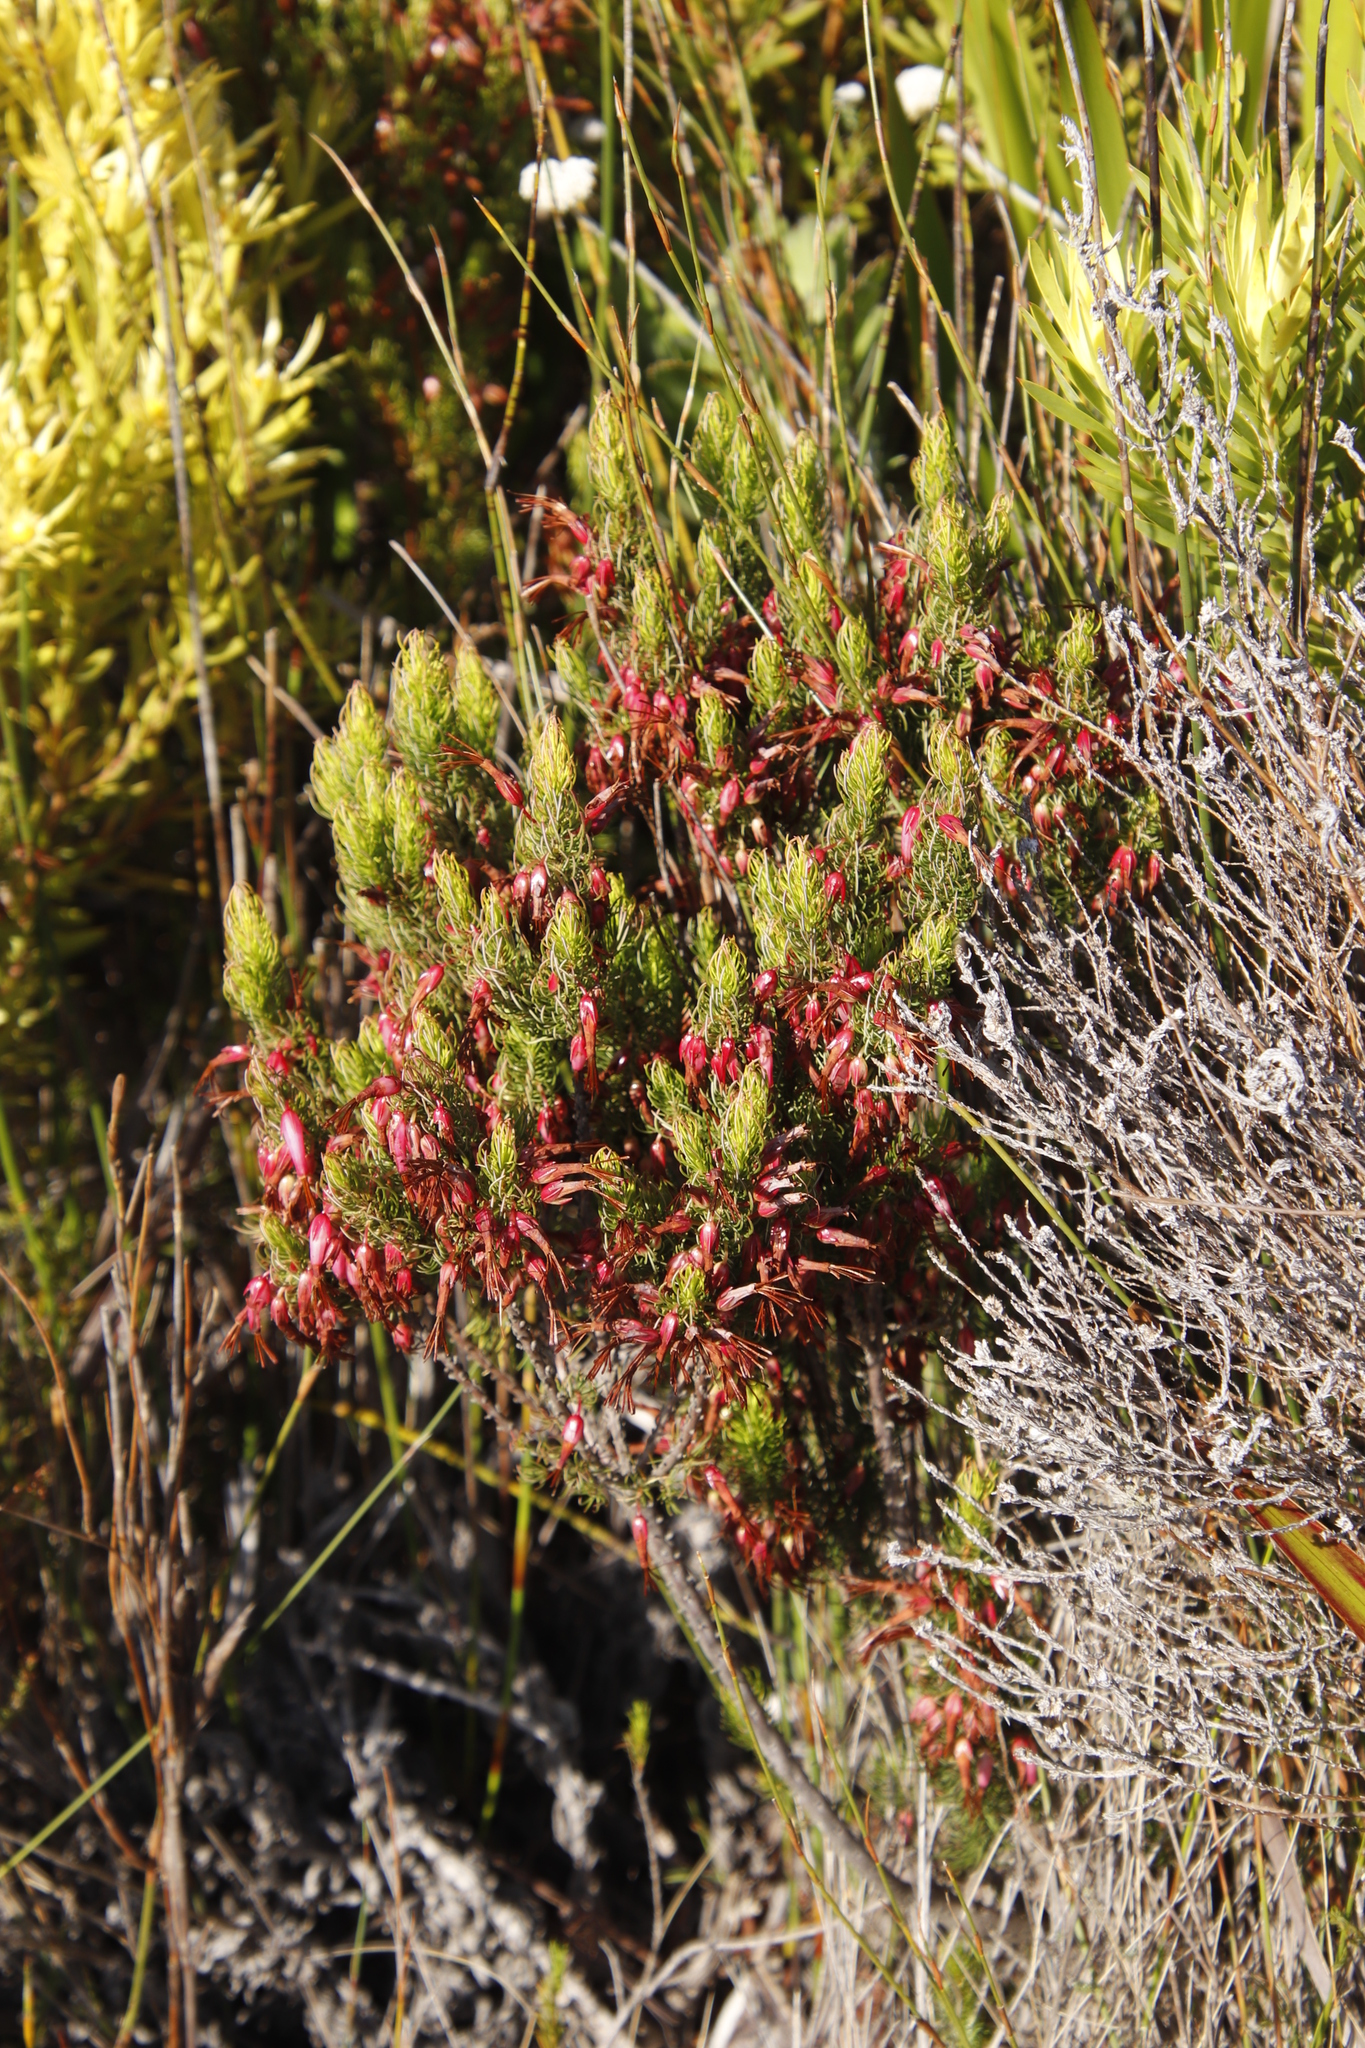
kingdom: Plantae
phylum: Tracheophyta
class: Magnoliopsida
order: Ericales
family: Ericaceae
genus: Erica
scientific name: Erica plukenetii
